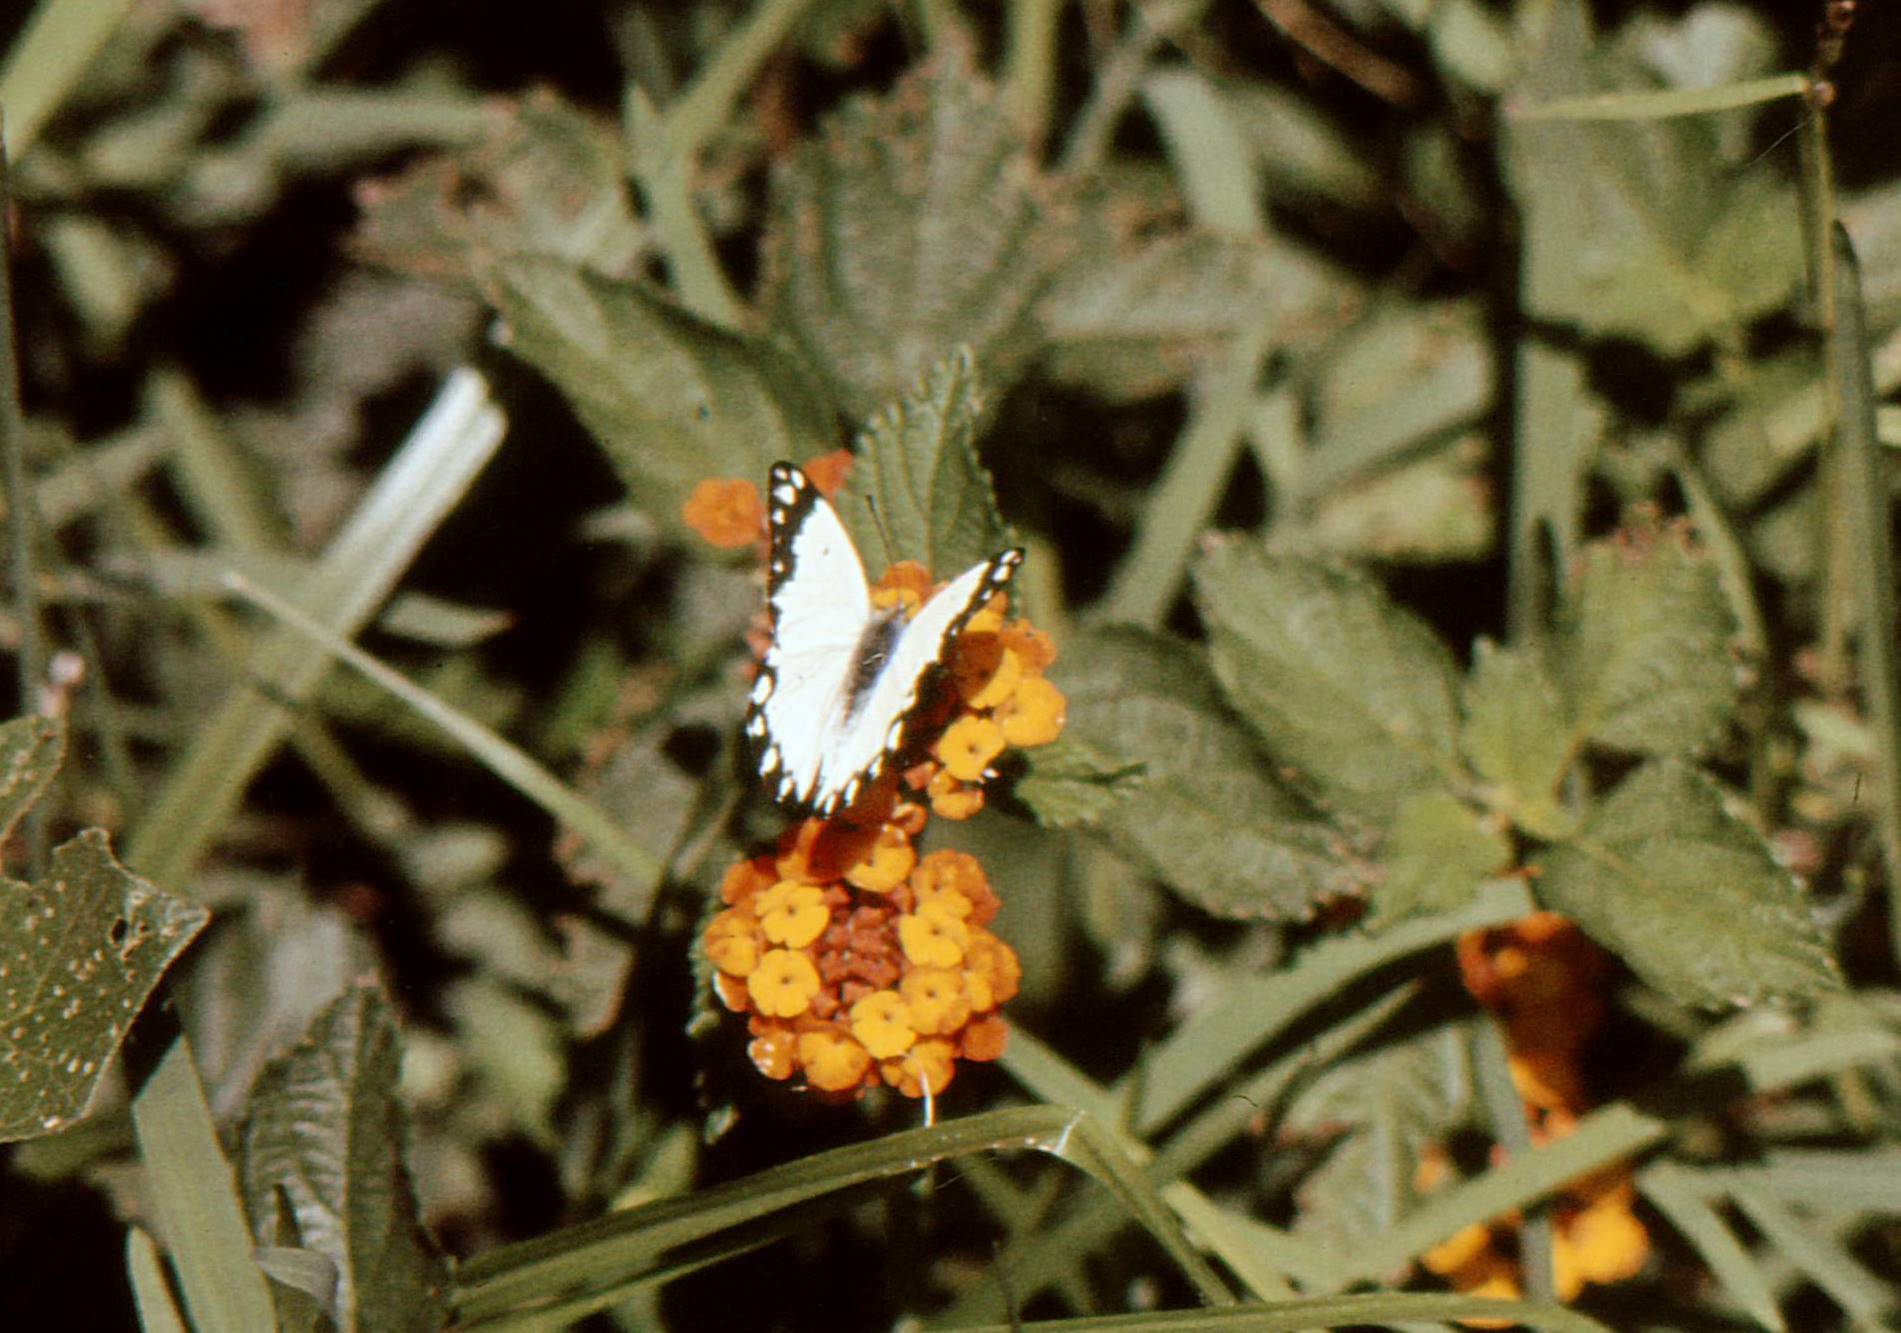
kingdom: Animalia
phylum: Arthropoda
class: Insecta
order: Lepidoptera
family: Pieridae
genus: Belenois
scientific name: Belenois creona
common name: African caper white
